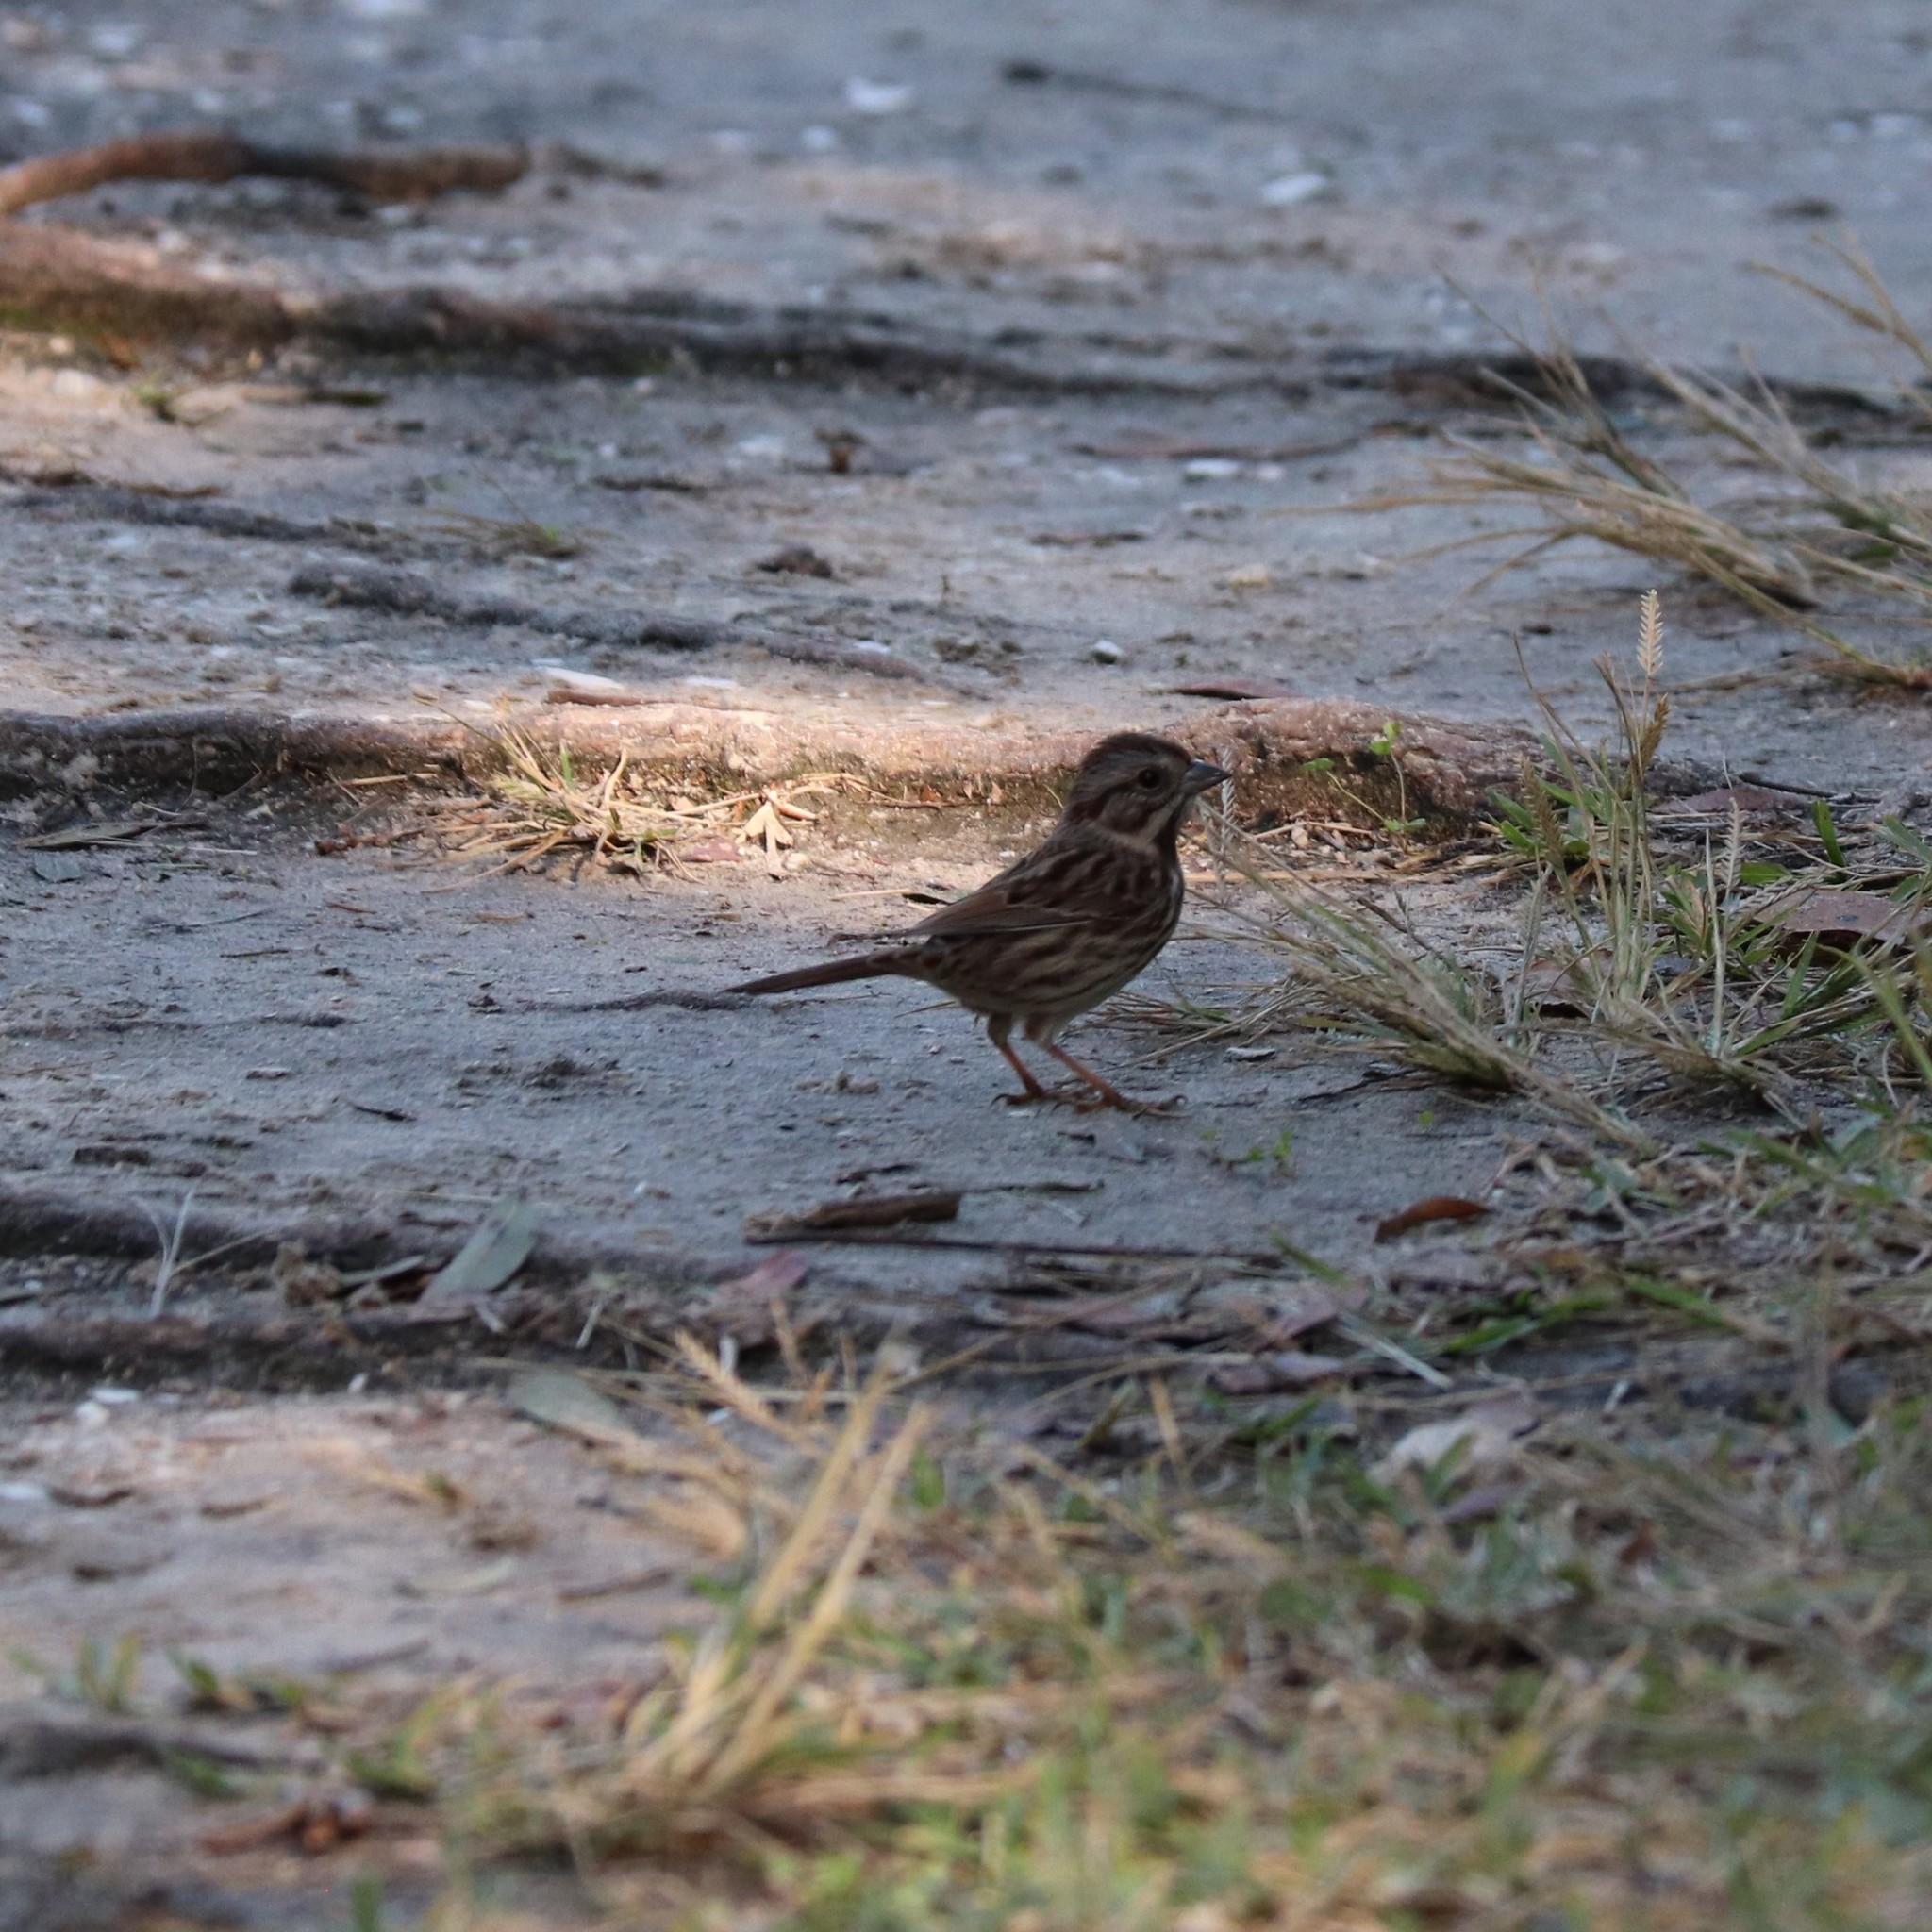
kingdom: Animalia
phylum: Chordata
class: Aves
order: Passeriformes
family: Passerellidae
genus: Melospiza
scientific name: Melospiza melodia
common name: Song sparrow
